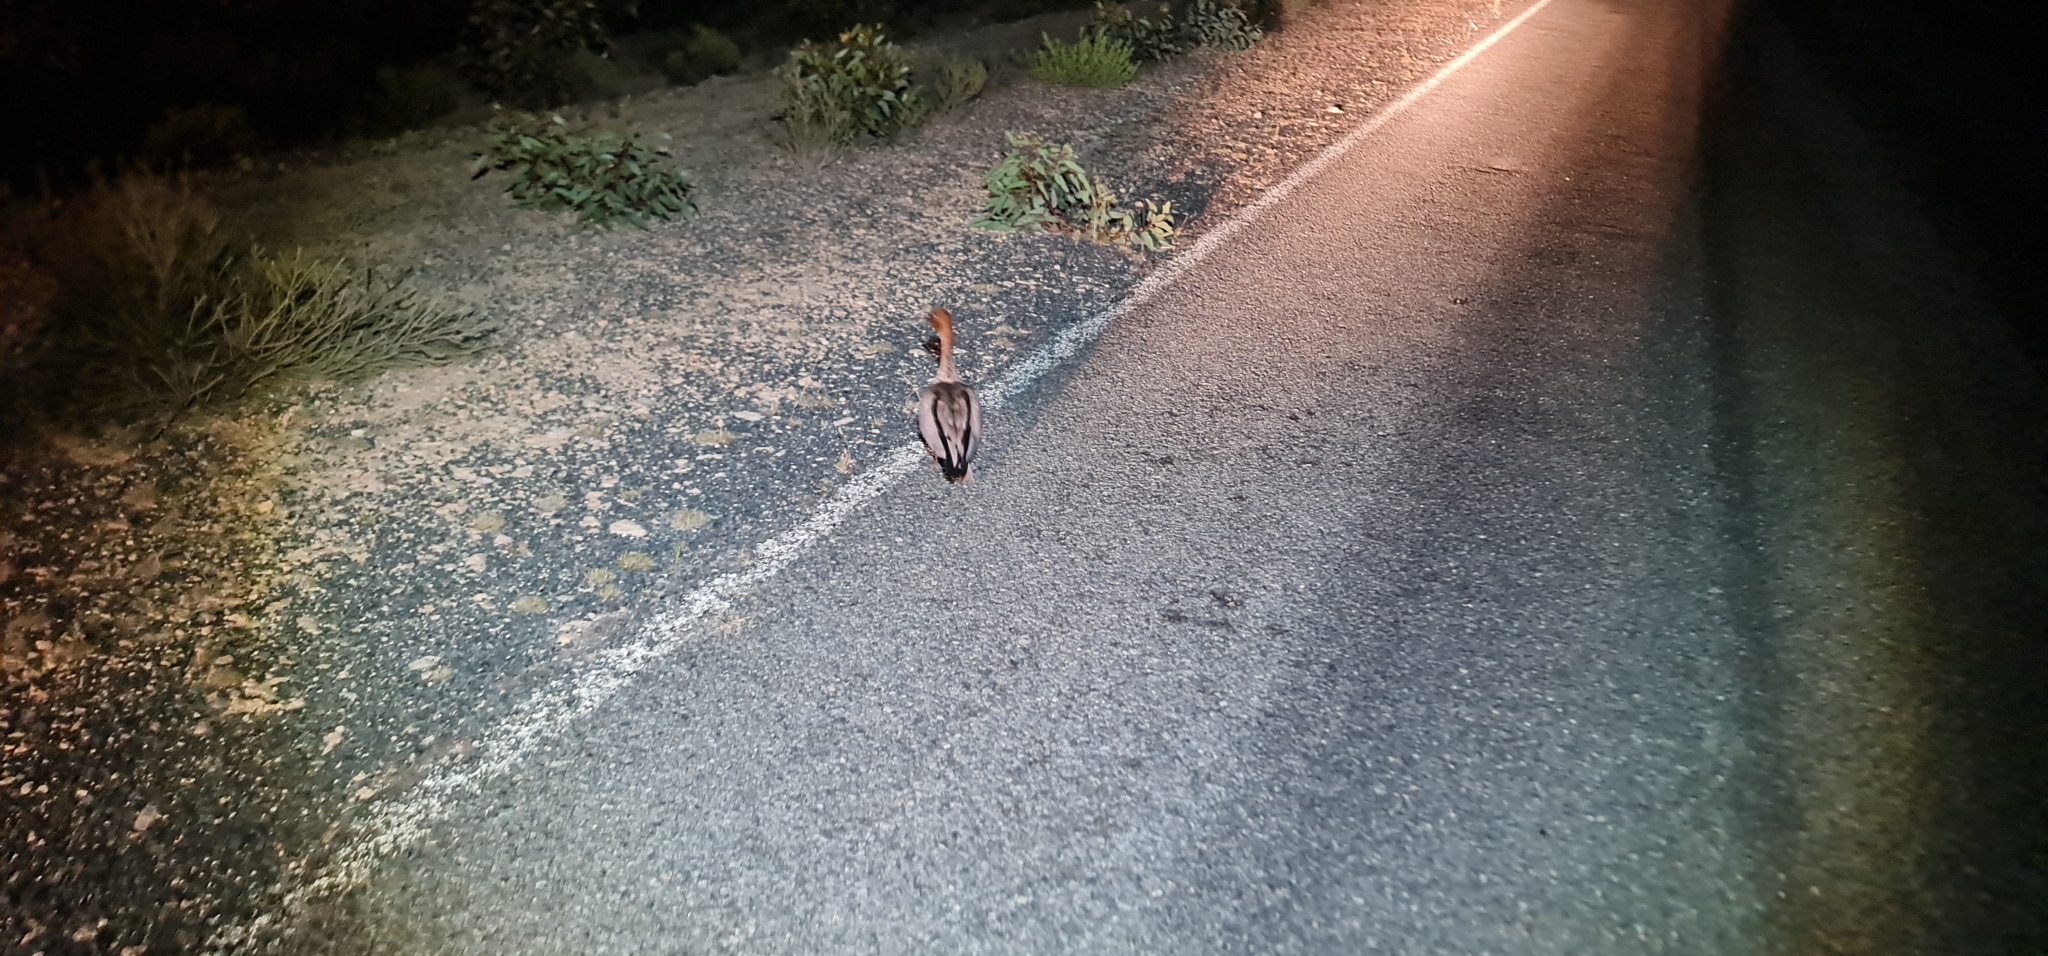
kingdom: Animalia
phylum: Chordata
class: Aves
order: Anseriformes
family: Anatidae
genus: Chenonetta
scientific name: Chenonetta jubata
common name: Maned duck
